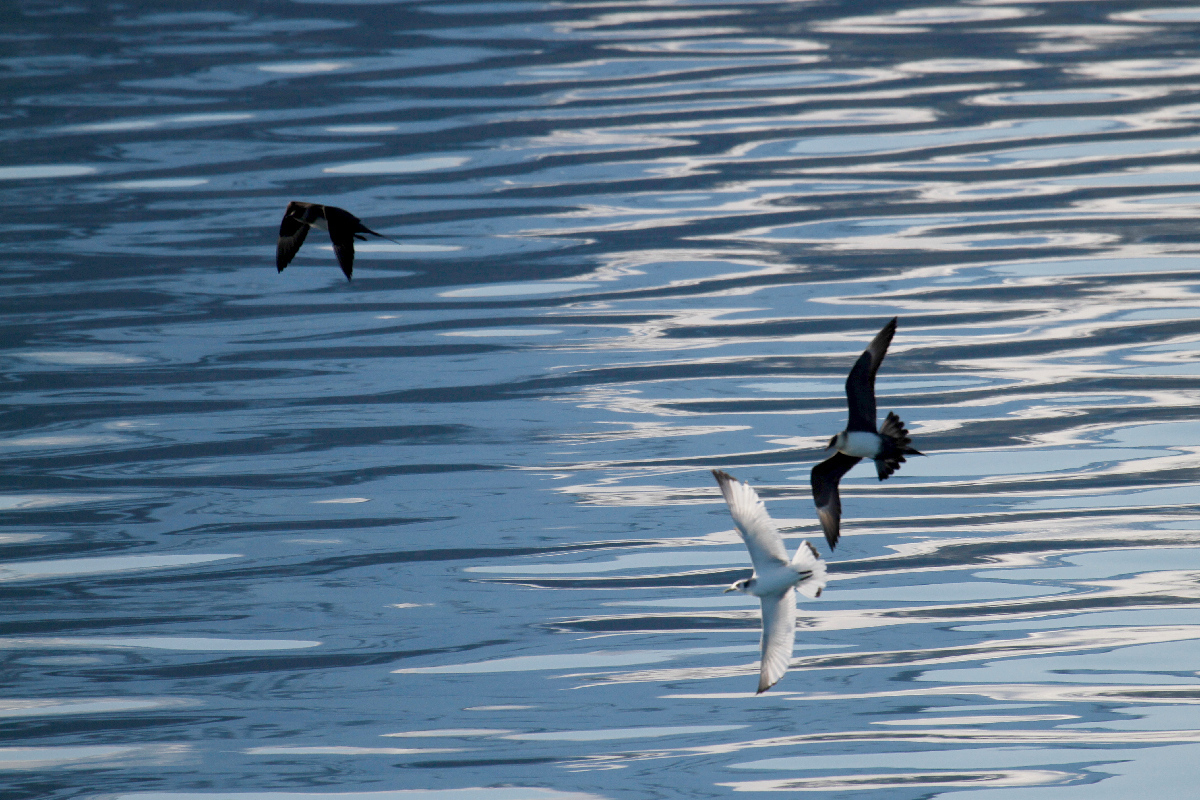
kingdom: Animalia
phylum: Chordata
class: Aves
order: Charadriiformes
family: Stercorariidae
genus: Stercorarius
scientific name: Stercorarius parasiticus
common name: Parasitic jaeger
